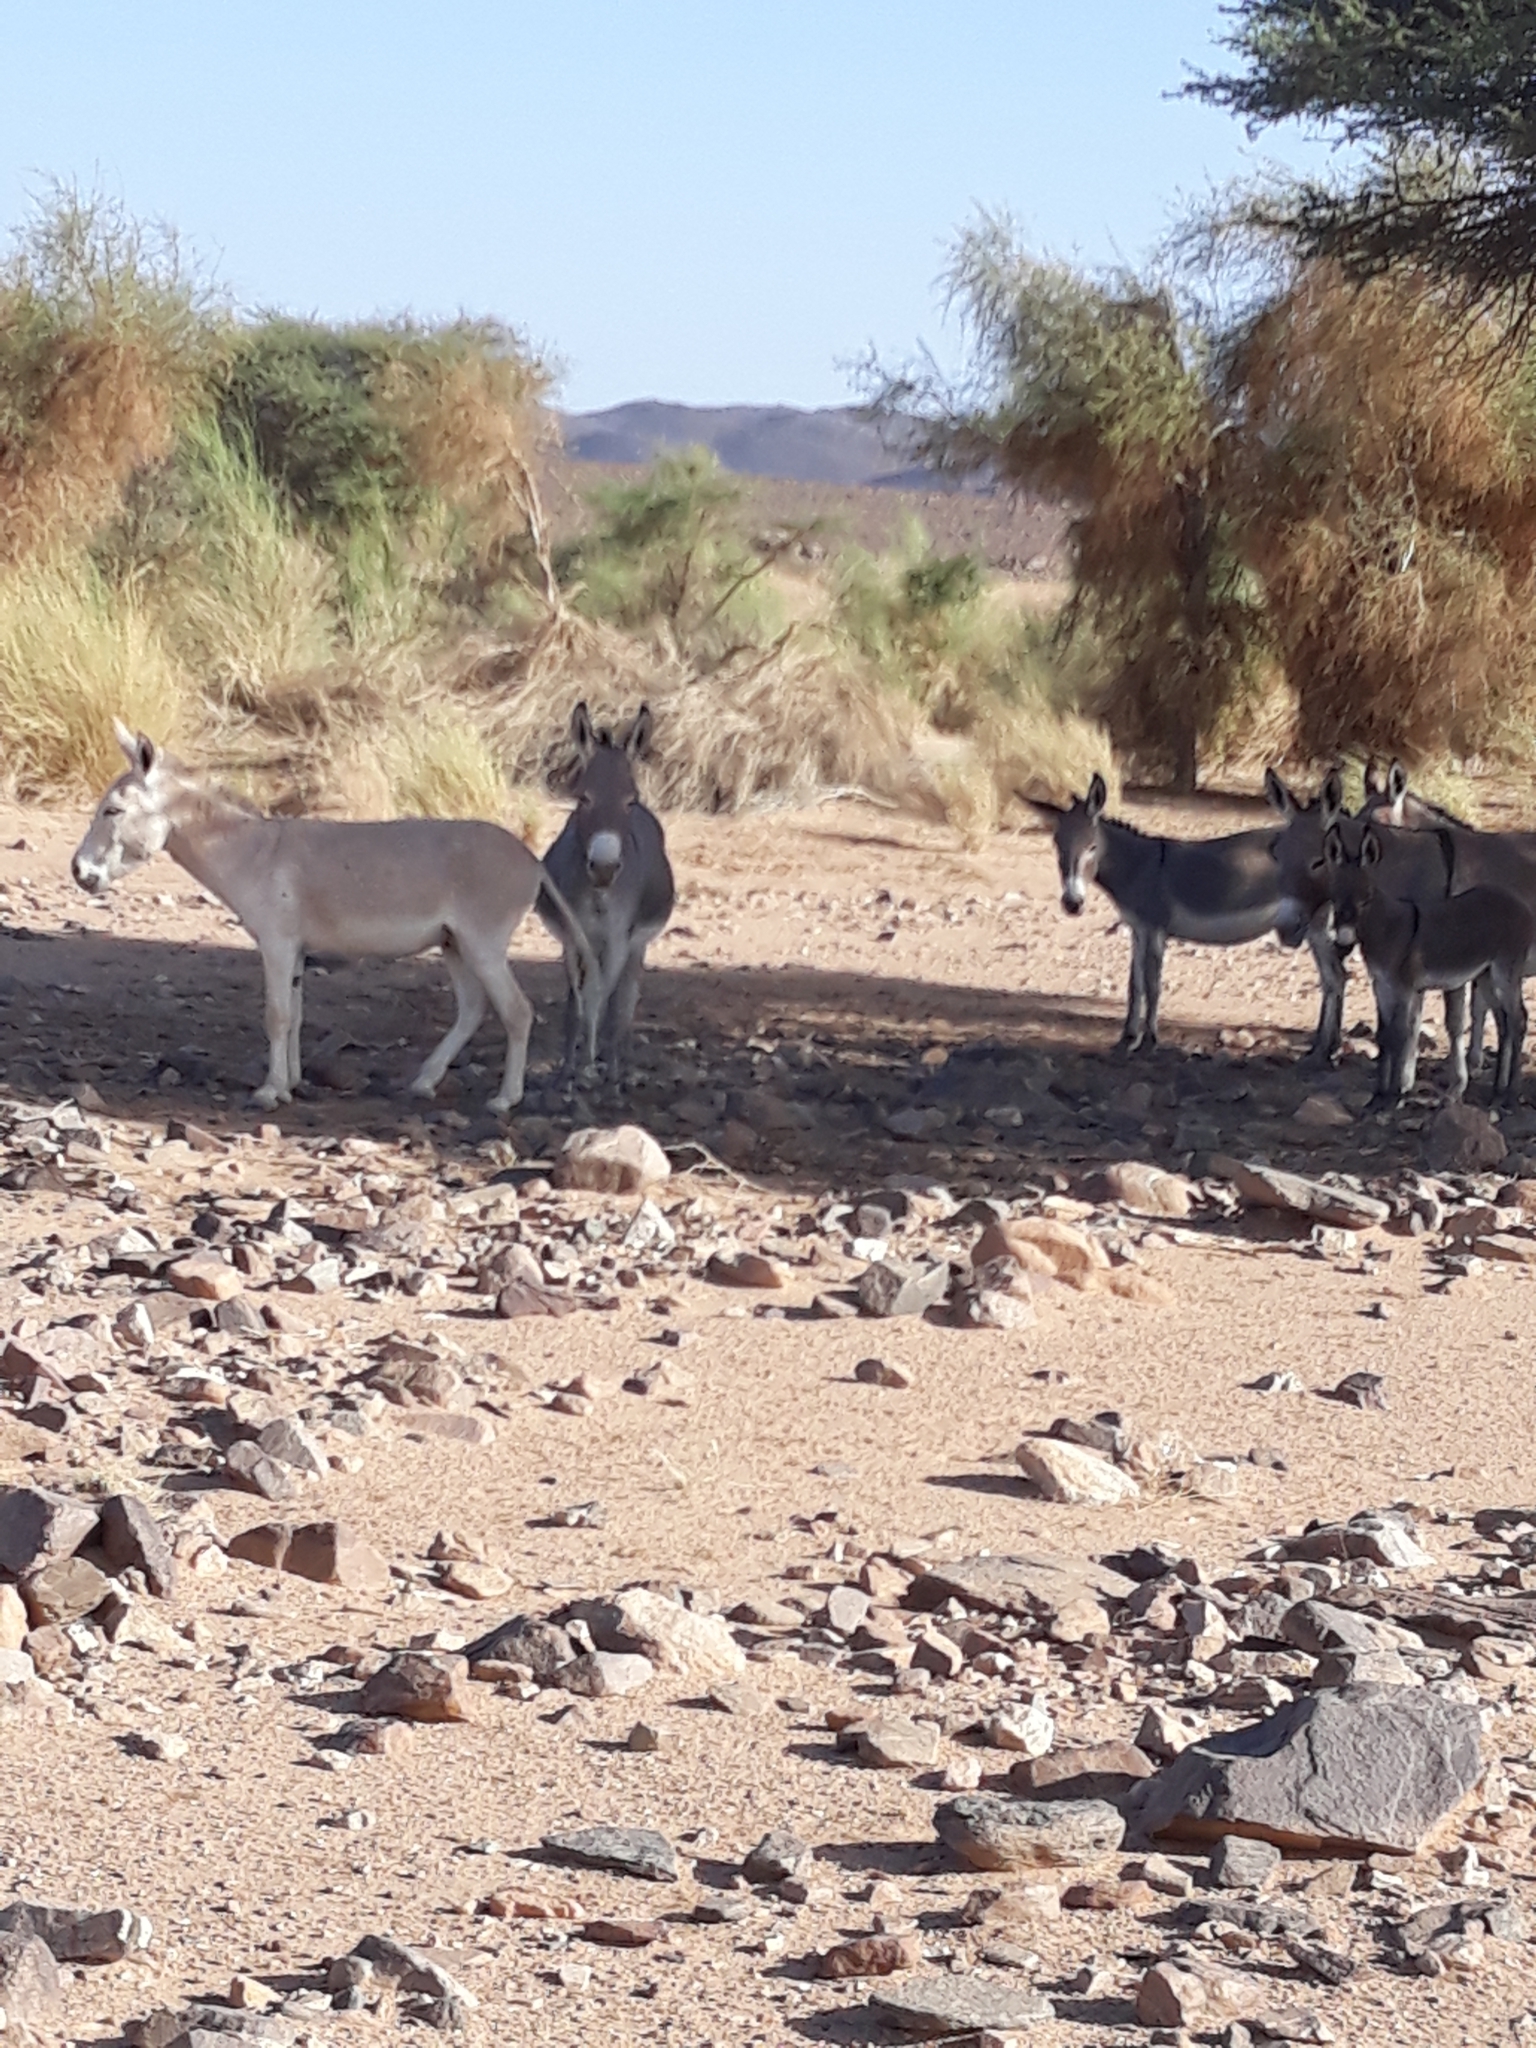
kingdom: Animalia
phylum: Chordata
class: Mammalia
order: Perissodactyla
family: Equidae
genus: Equus
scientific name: Equus asinus
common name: Ass
